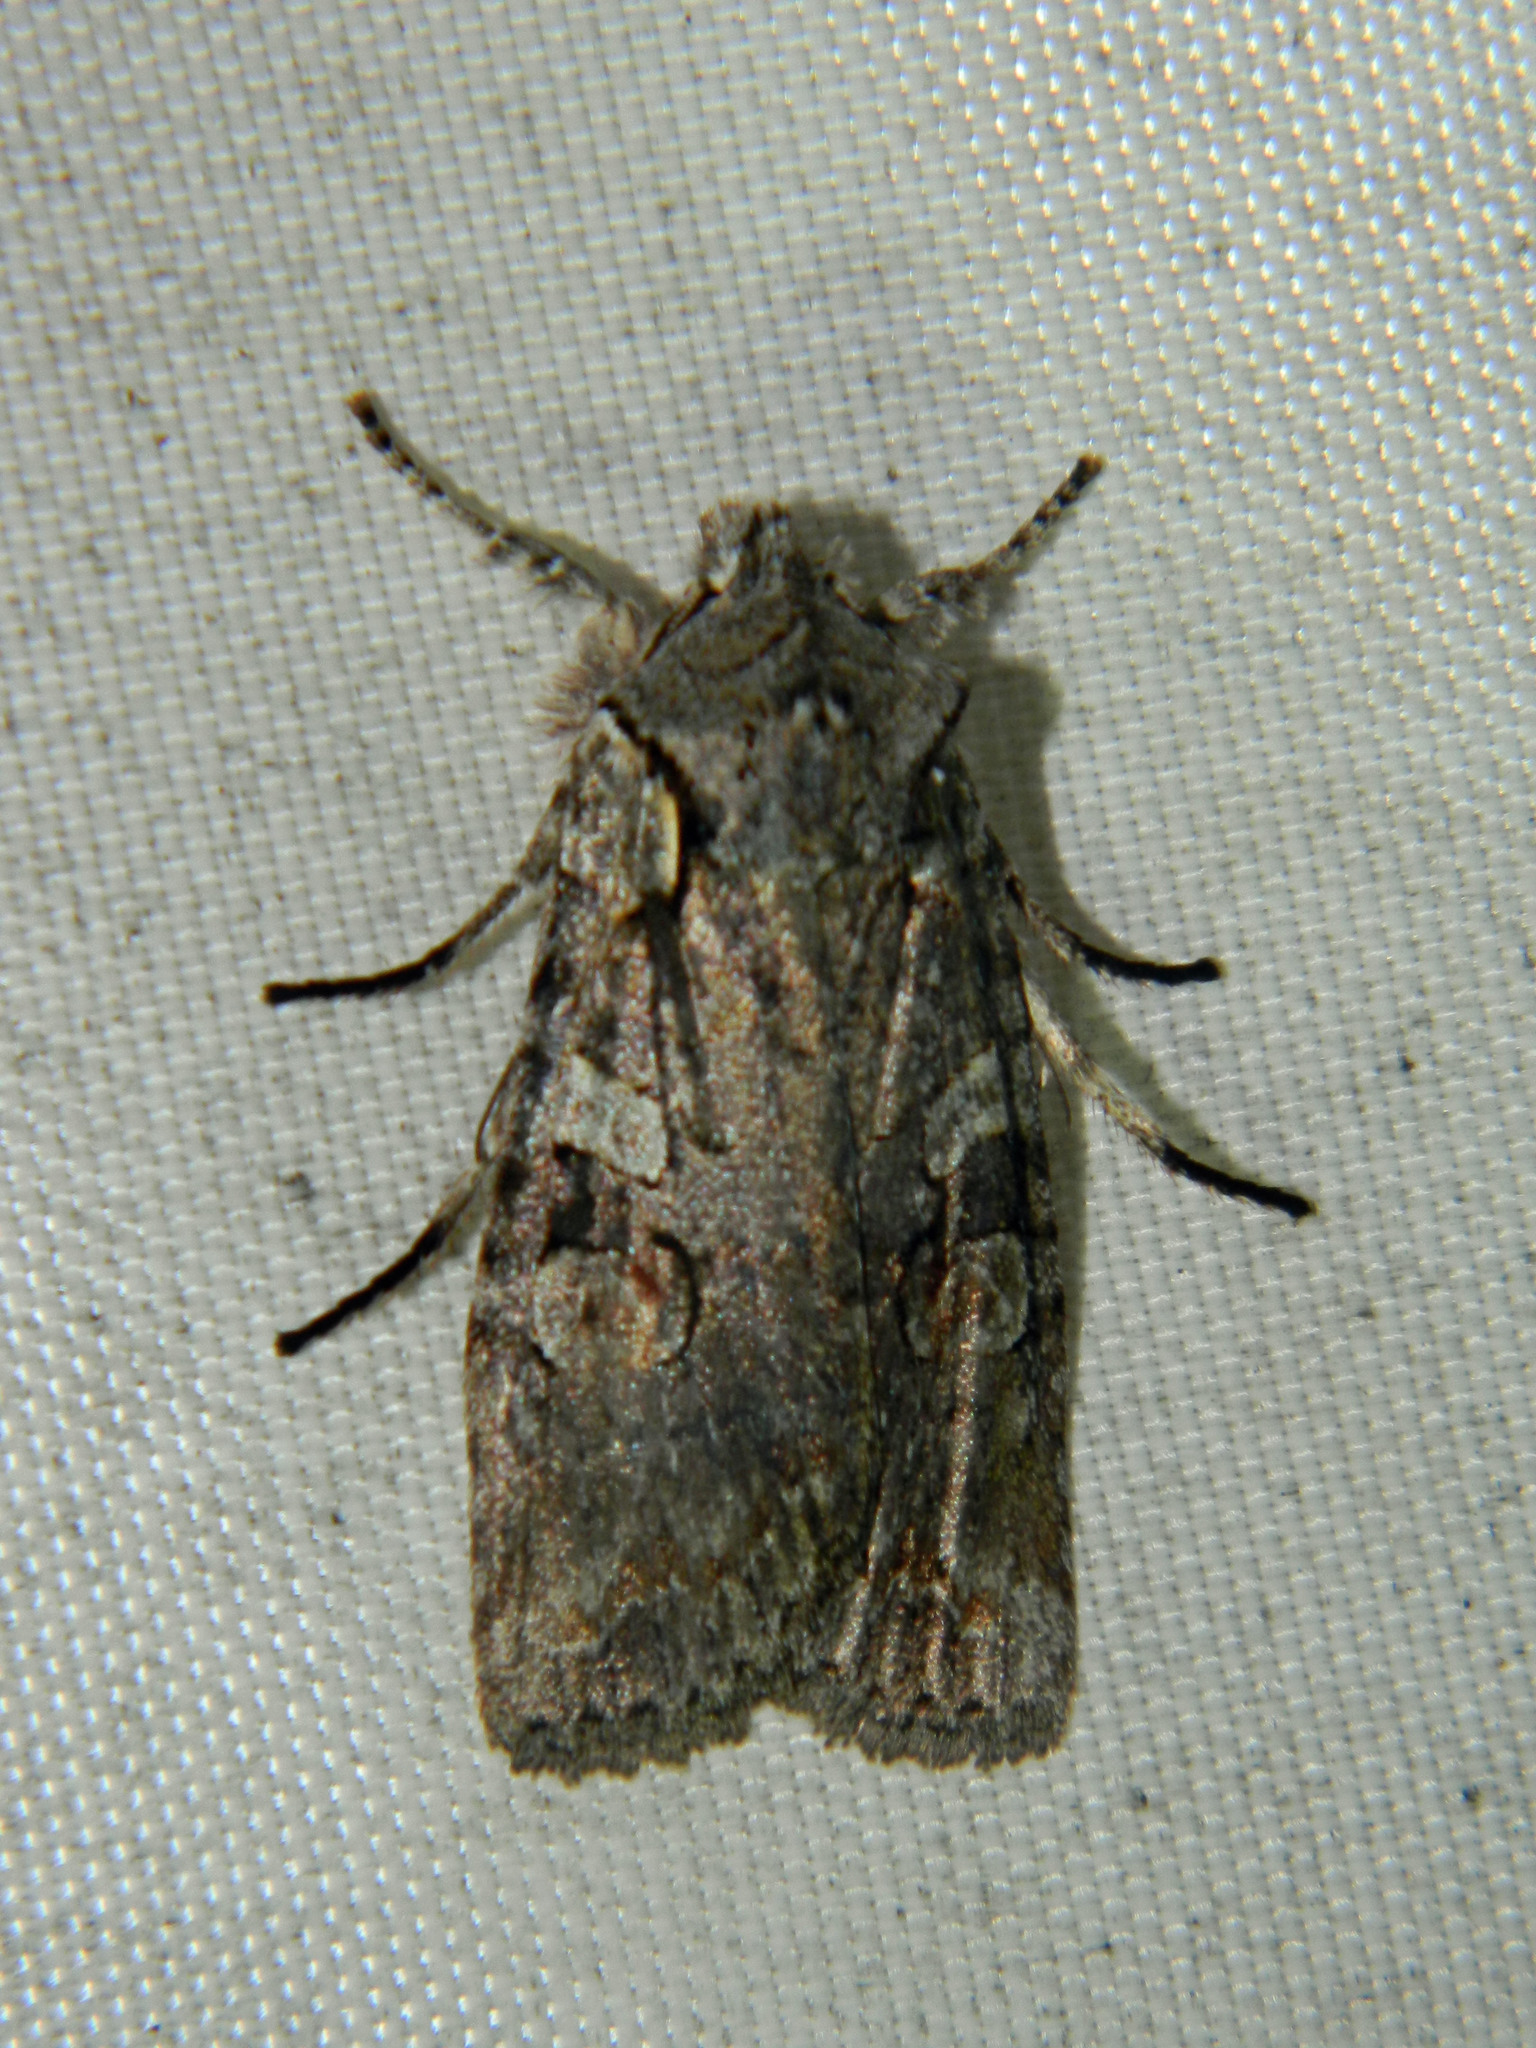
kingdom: Animalia
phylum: Arthropoda
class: Insecta
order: Lepidoptera
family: Noctuidae
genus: Lithophane
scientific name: Lithophane baileyi
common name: Bailey's pinion moth
